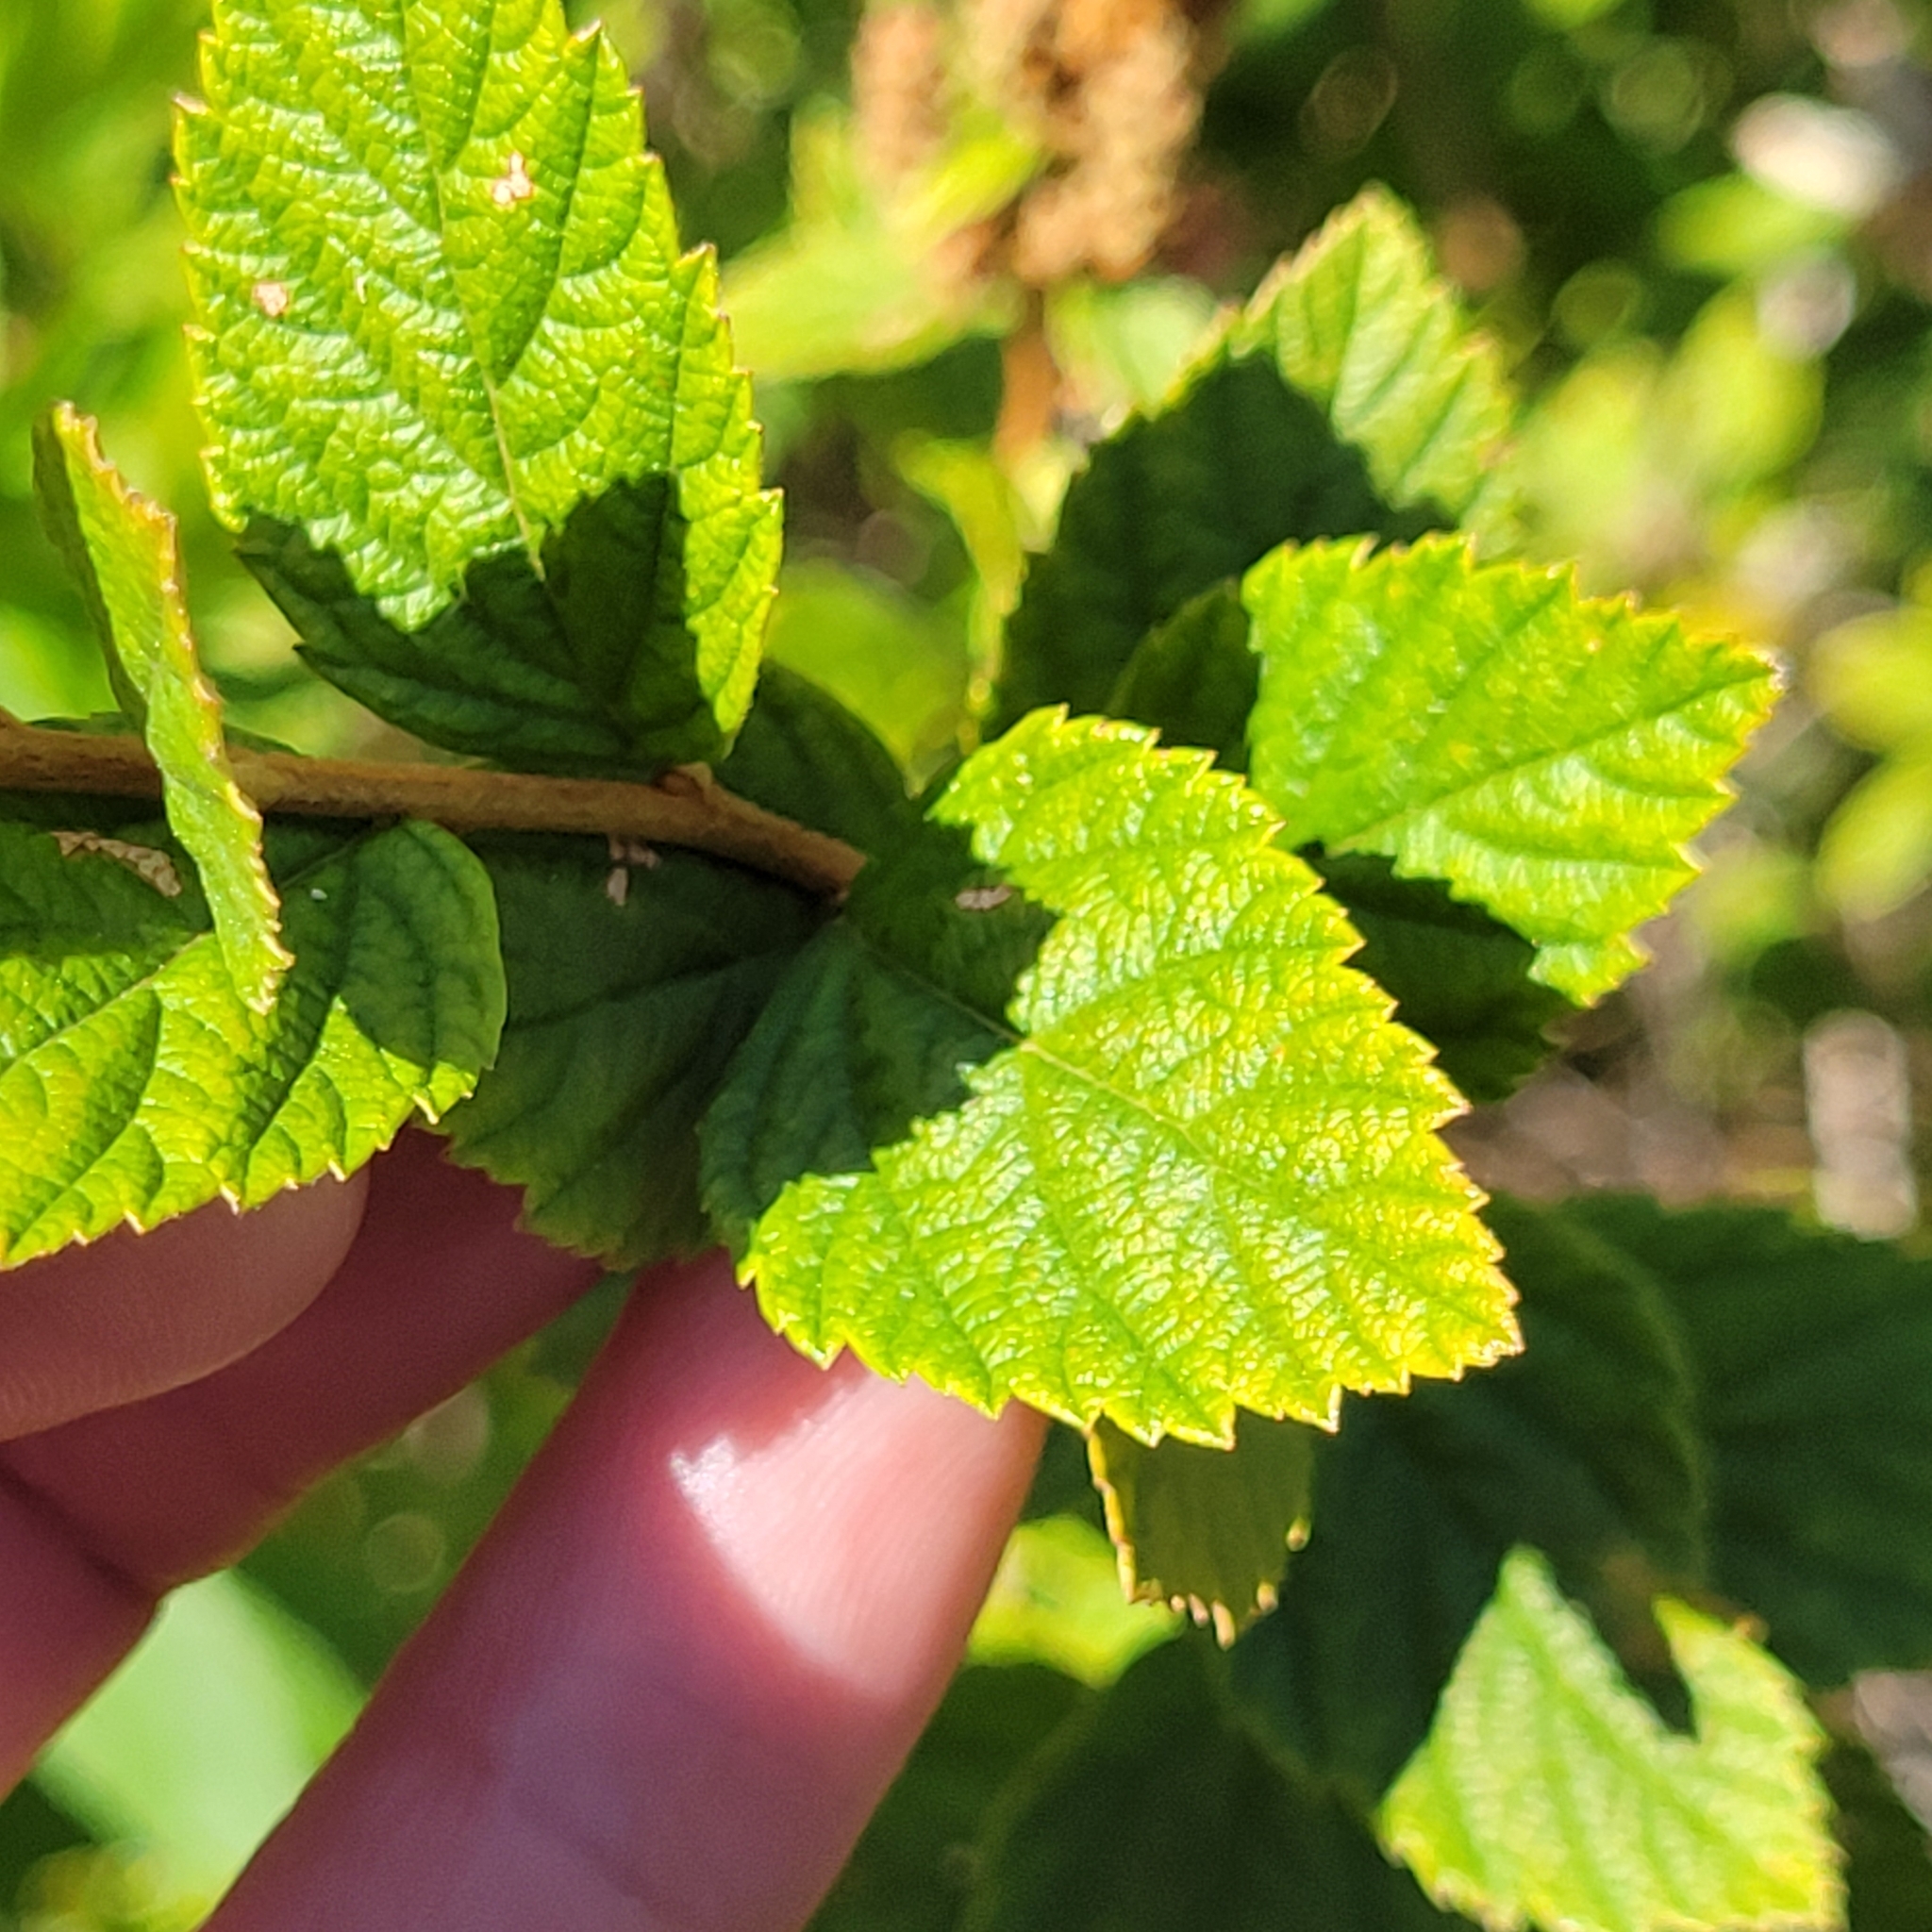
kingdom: Plantae
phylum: Tracheophyta
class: Magnoliopsida
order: Rosales
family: Rosaceae
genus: Spiraea
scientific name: Spiraea tomentosa
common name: Hardhack
